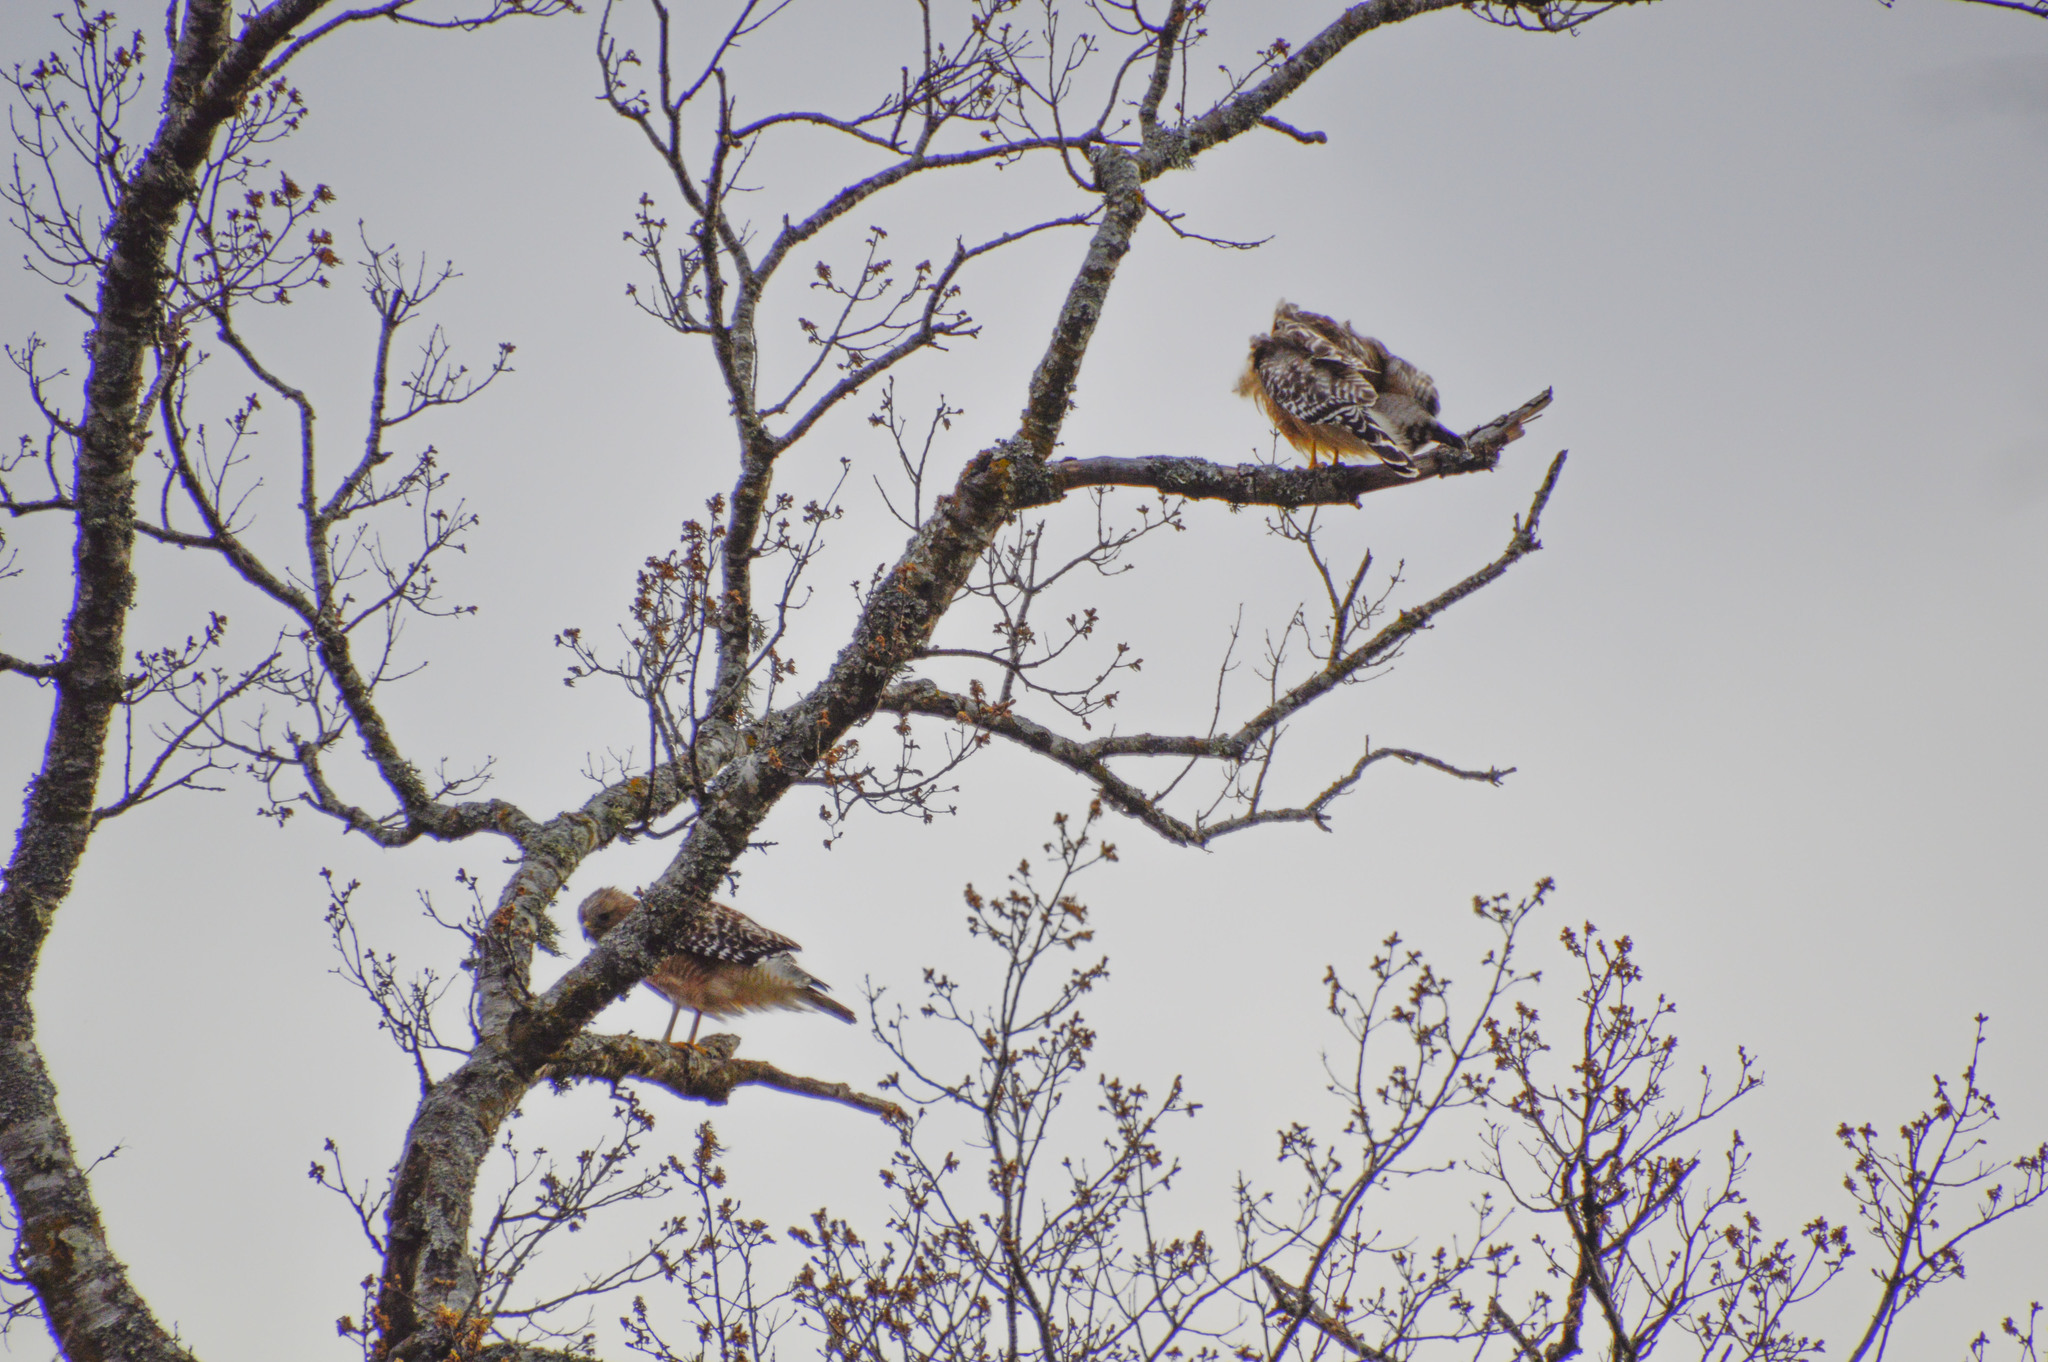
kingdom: Animalia
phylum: Chordata
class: Aves
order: Accipitriformes
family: Accipitridae
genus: Buteo
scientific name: Buteo lineatus
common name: Red-shouldered hawk
